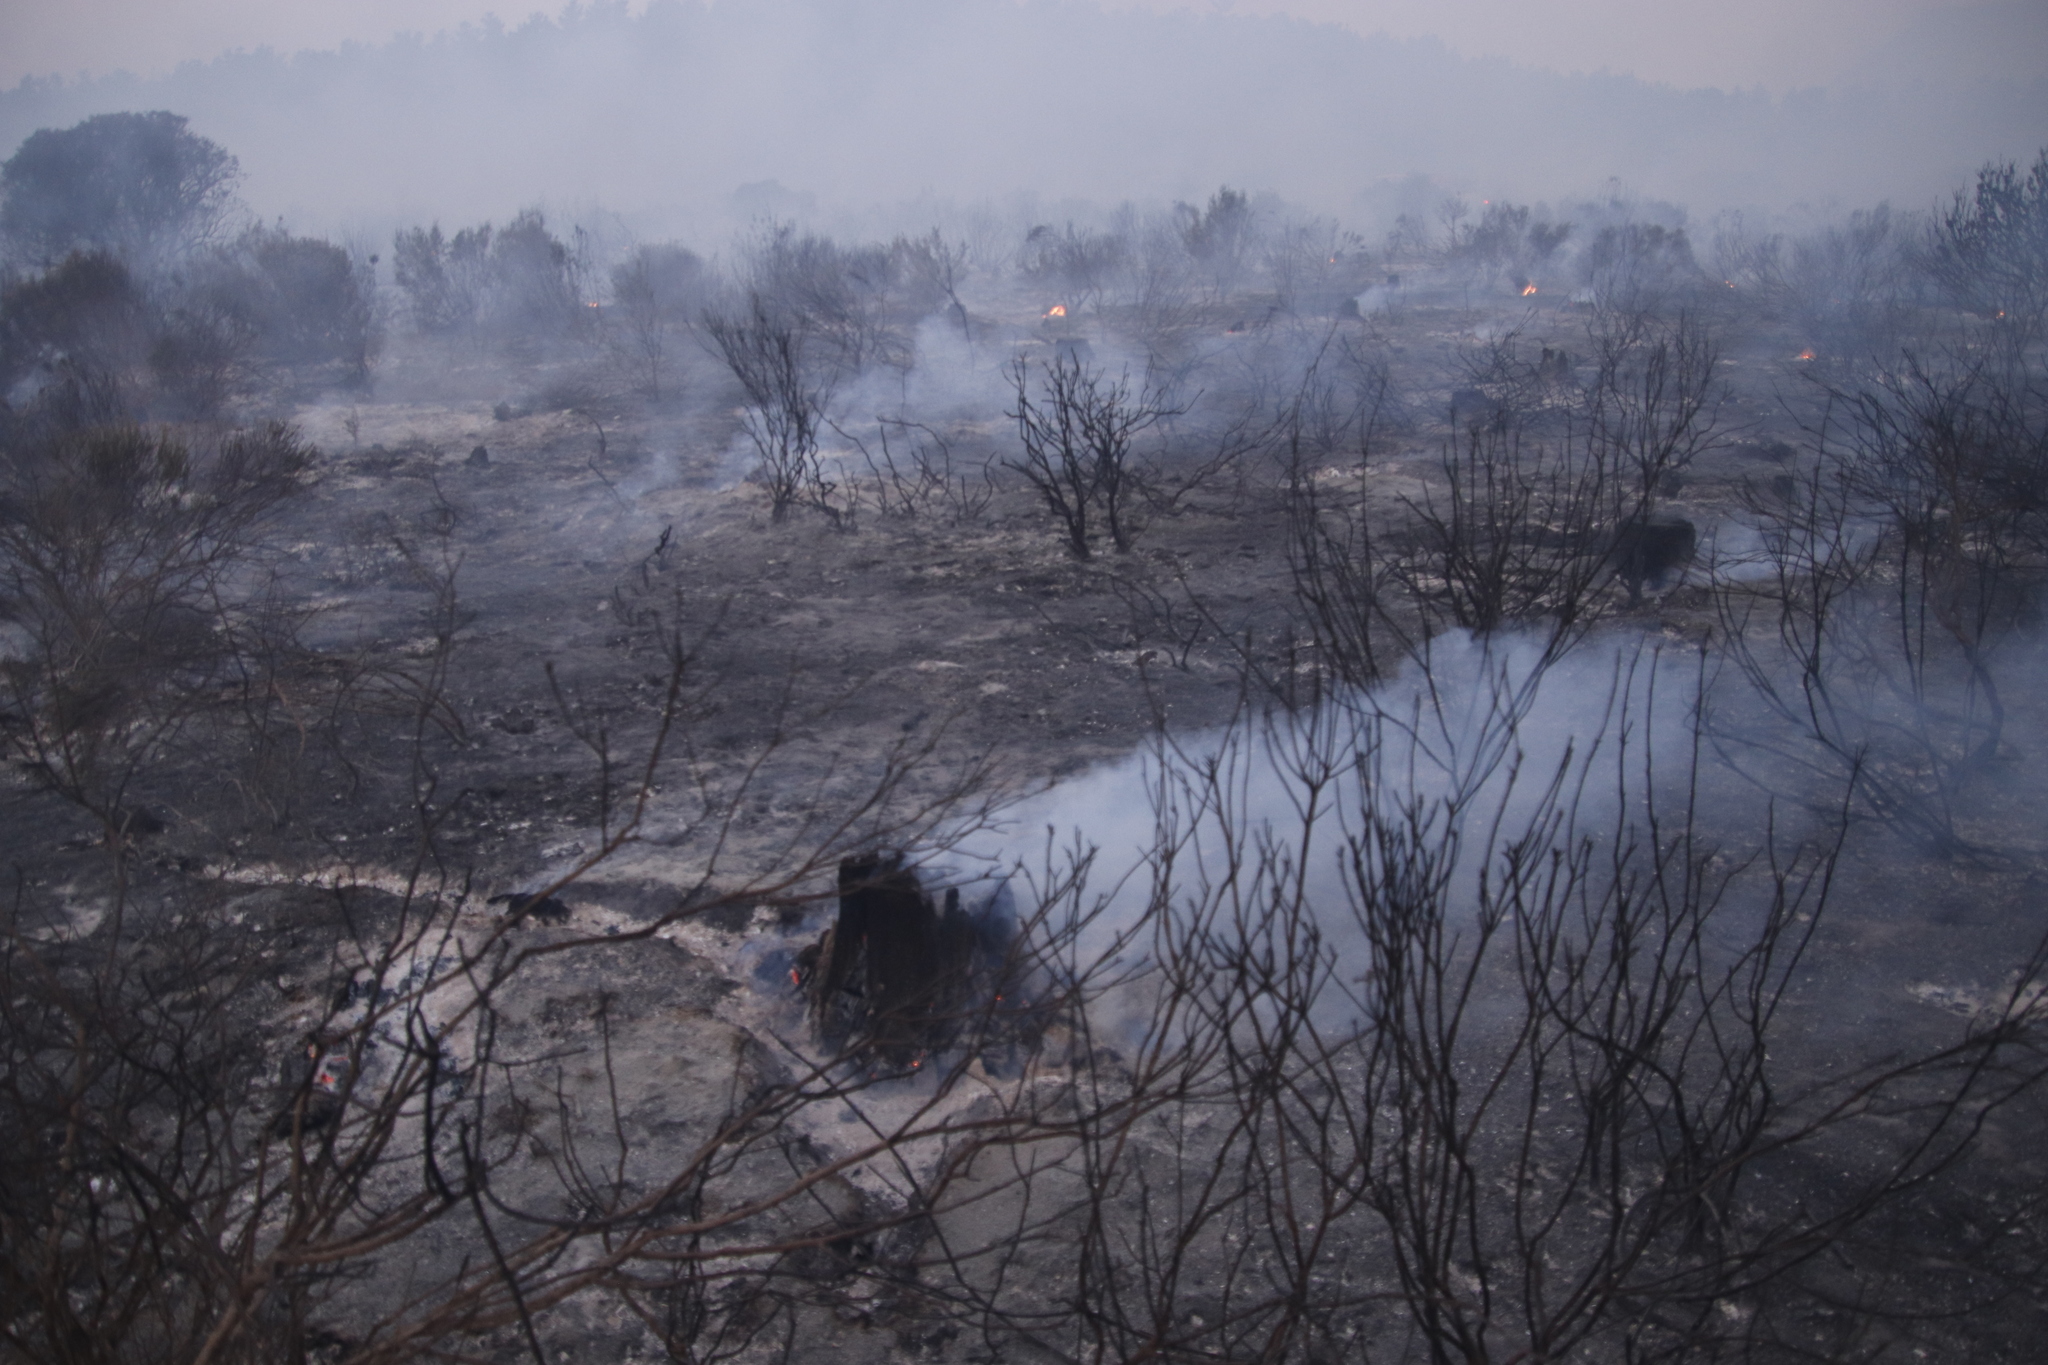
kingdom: Plantae
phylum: Tracheophyta
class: Magnoliopsida
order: Asterales
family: Asteraceae
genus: Metalasia
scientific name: Metalasia densa
